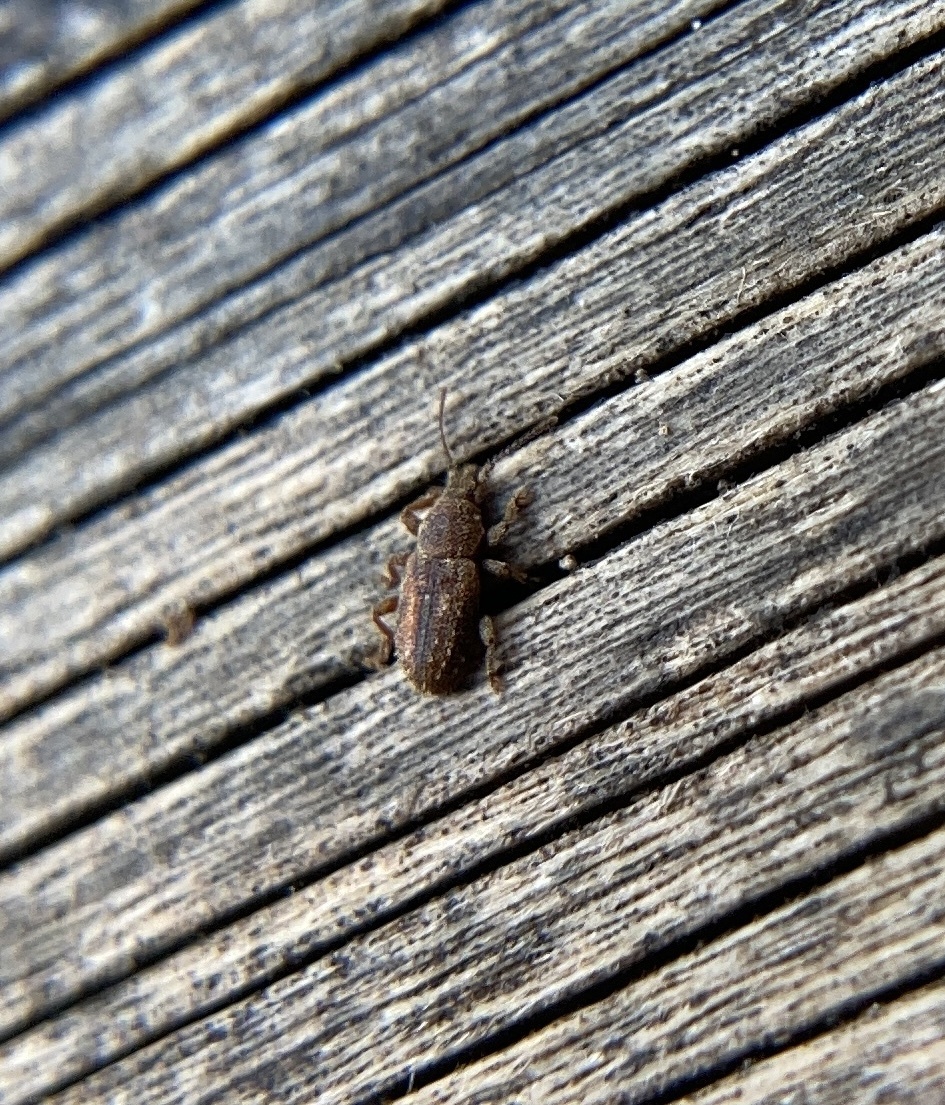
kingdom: Animalia
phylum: Arthropoda
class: Insecta
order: Coleoptera
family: Belidae
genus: Proterhinus
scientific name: Proterhinus samoae
